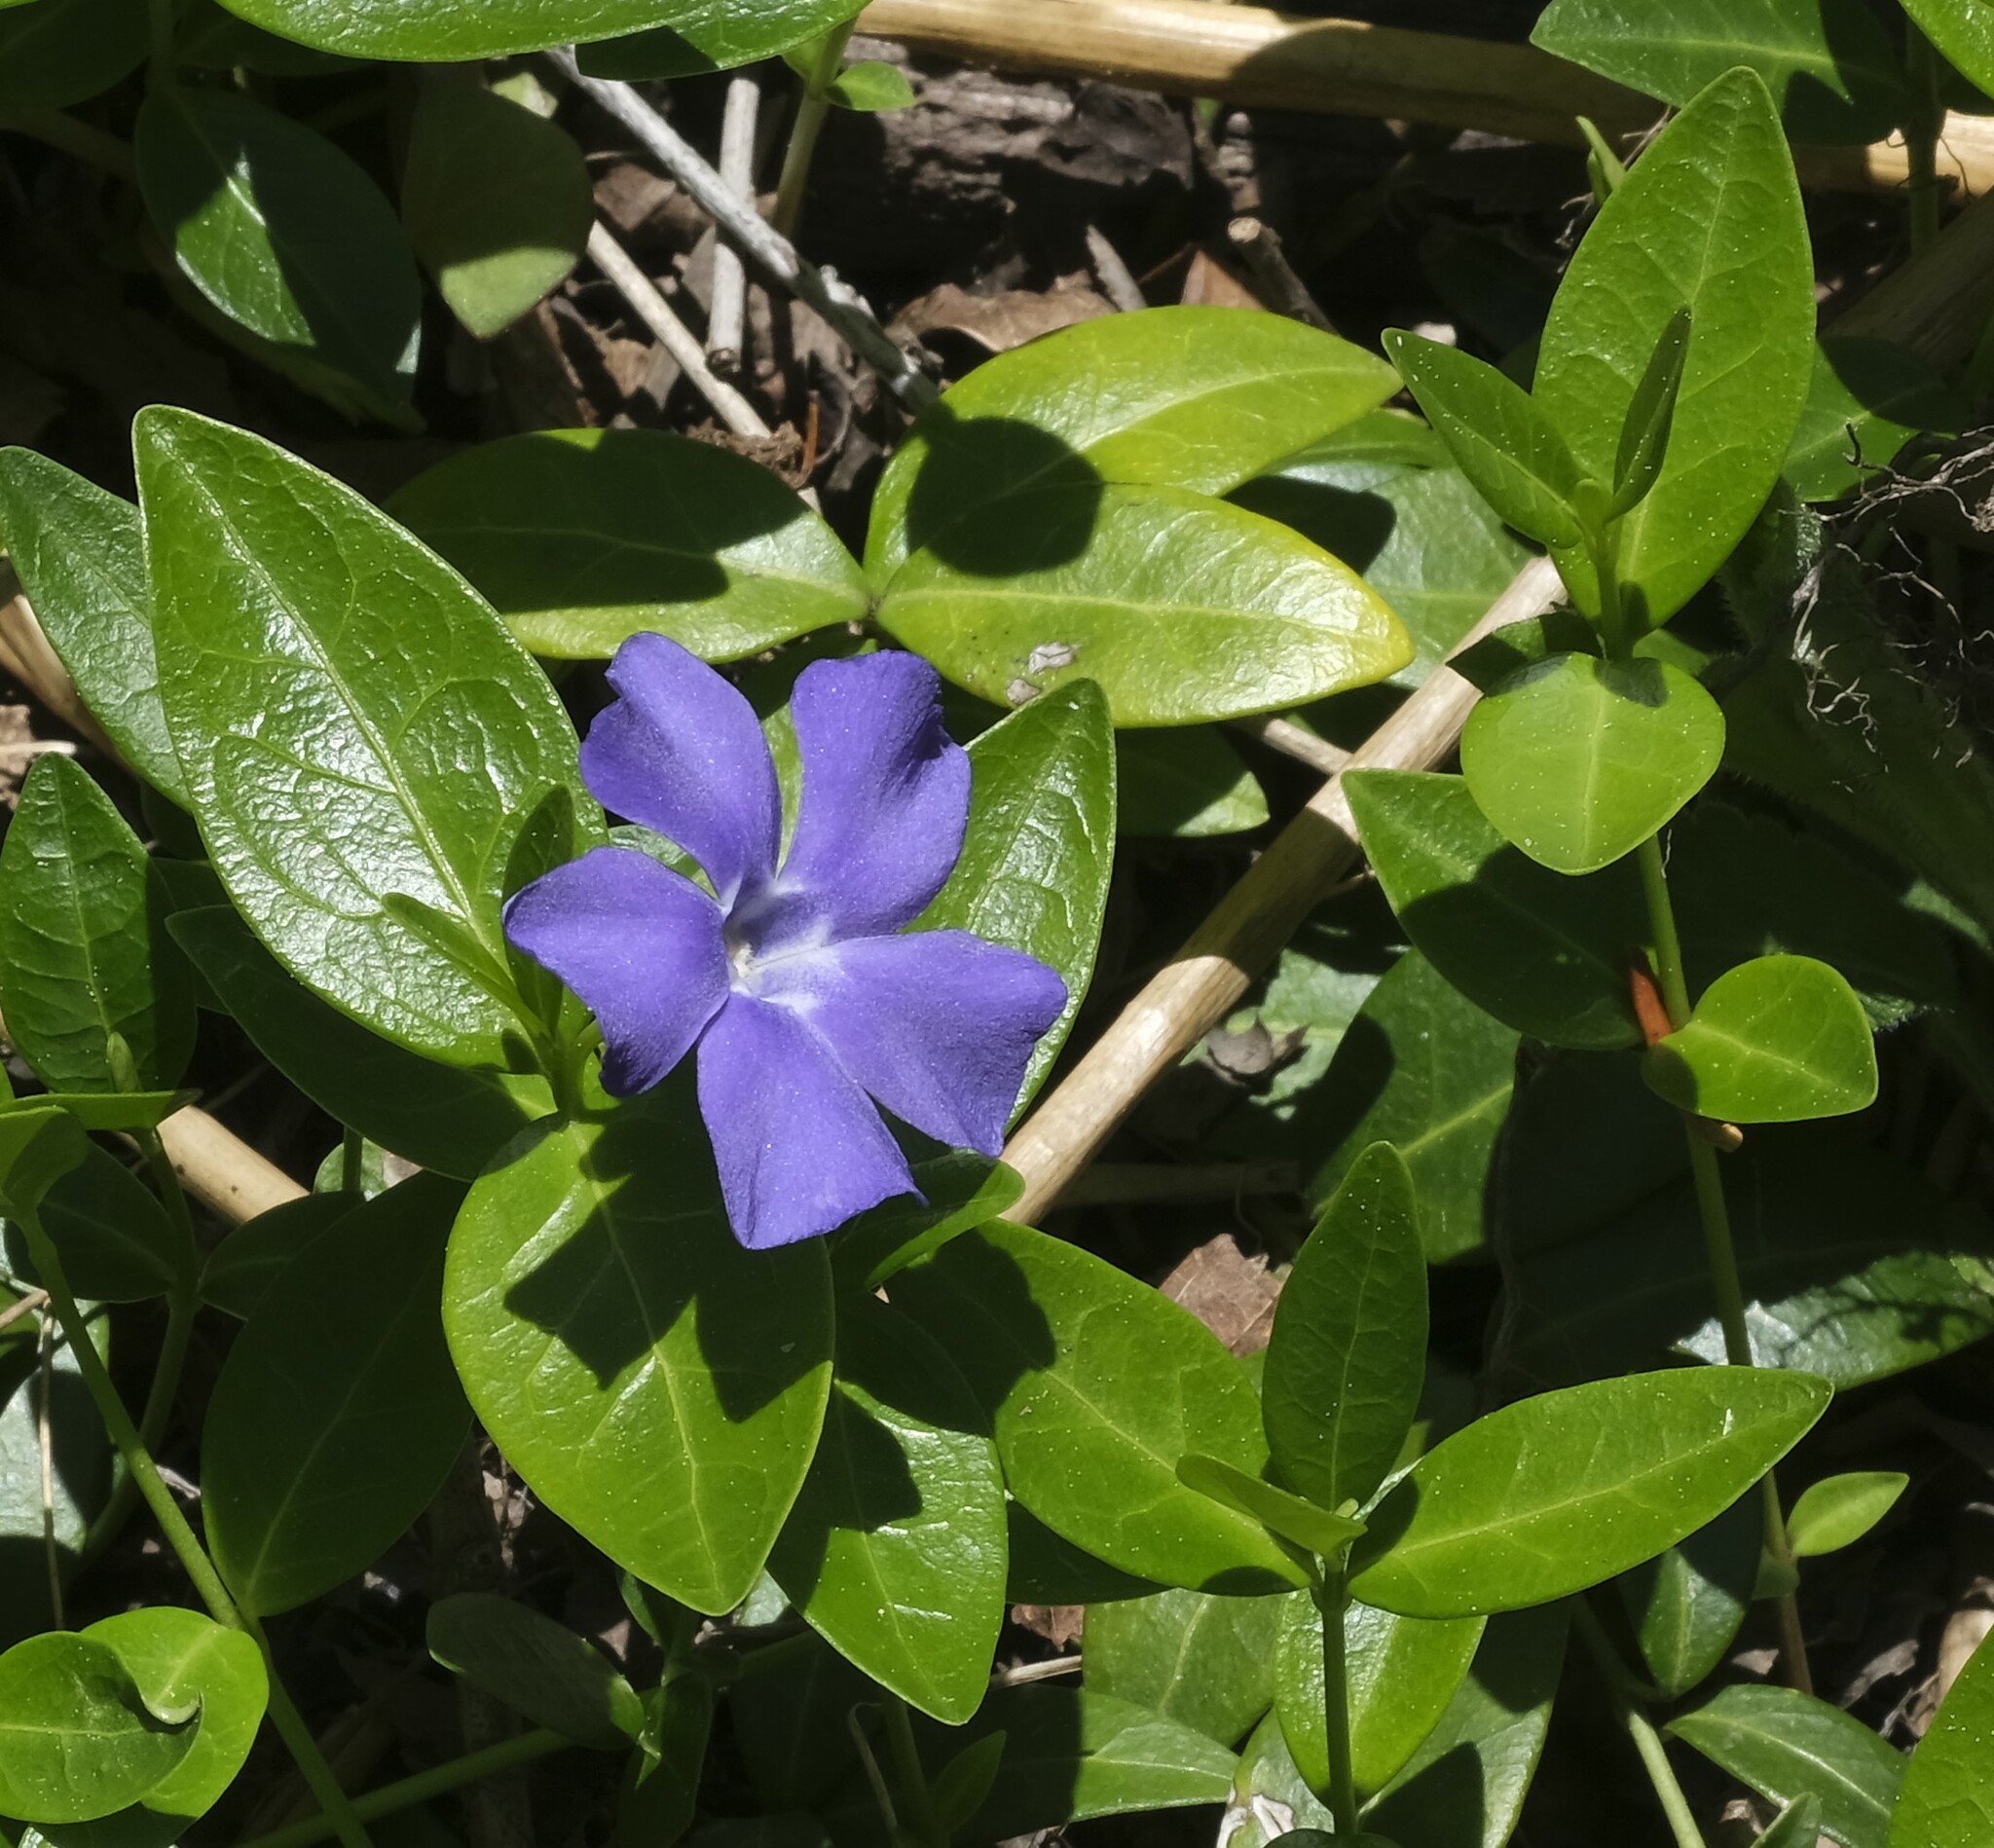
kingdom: Plantae
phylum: Tracheophyta
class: Magnoliopsida
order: Gentianales
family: Apocynaceae
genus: Vinca
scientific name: Vinca minor
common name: Lesser periwinkle
